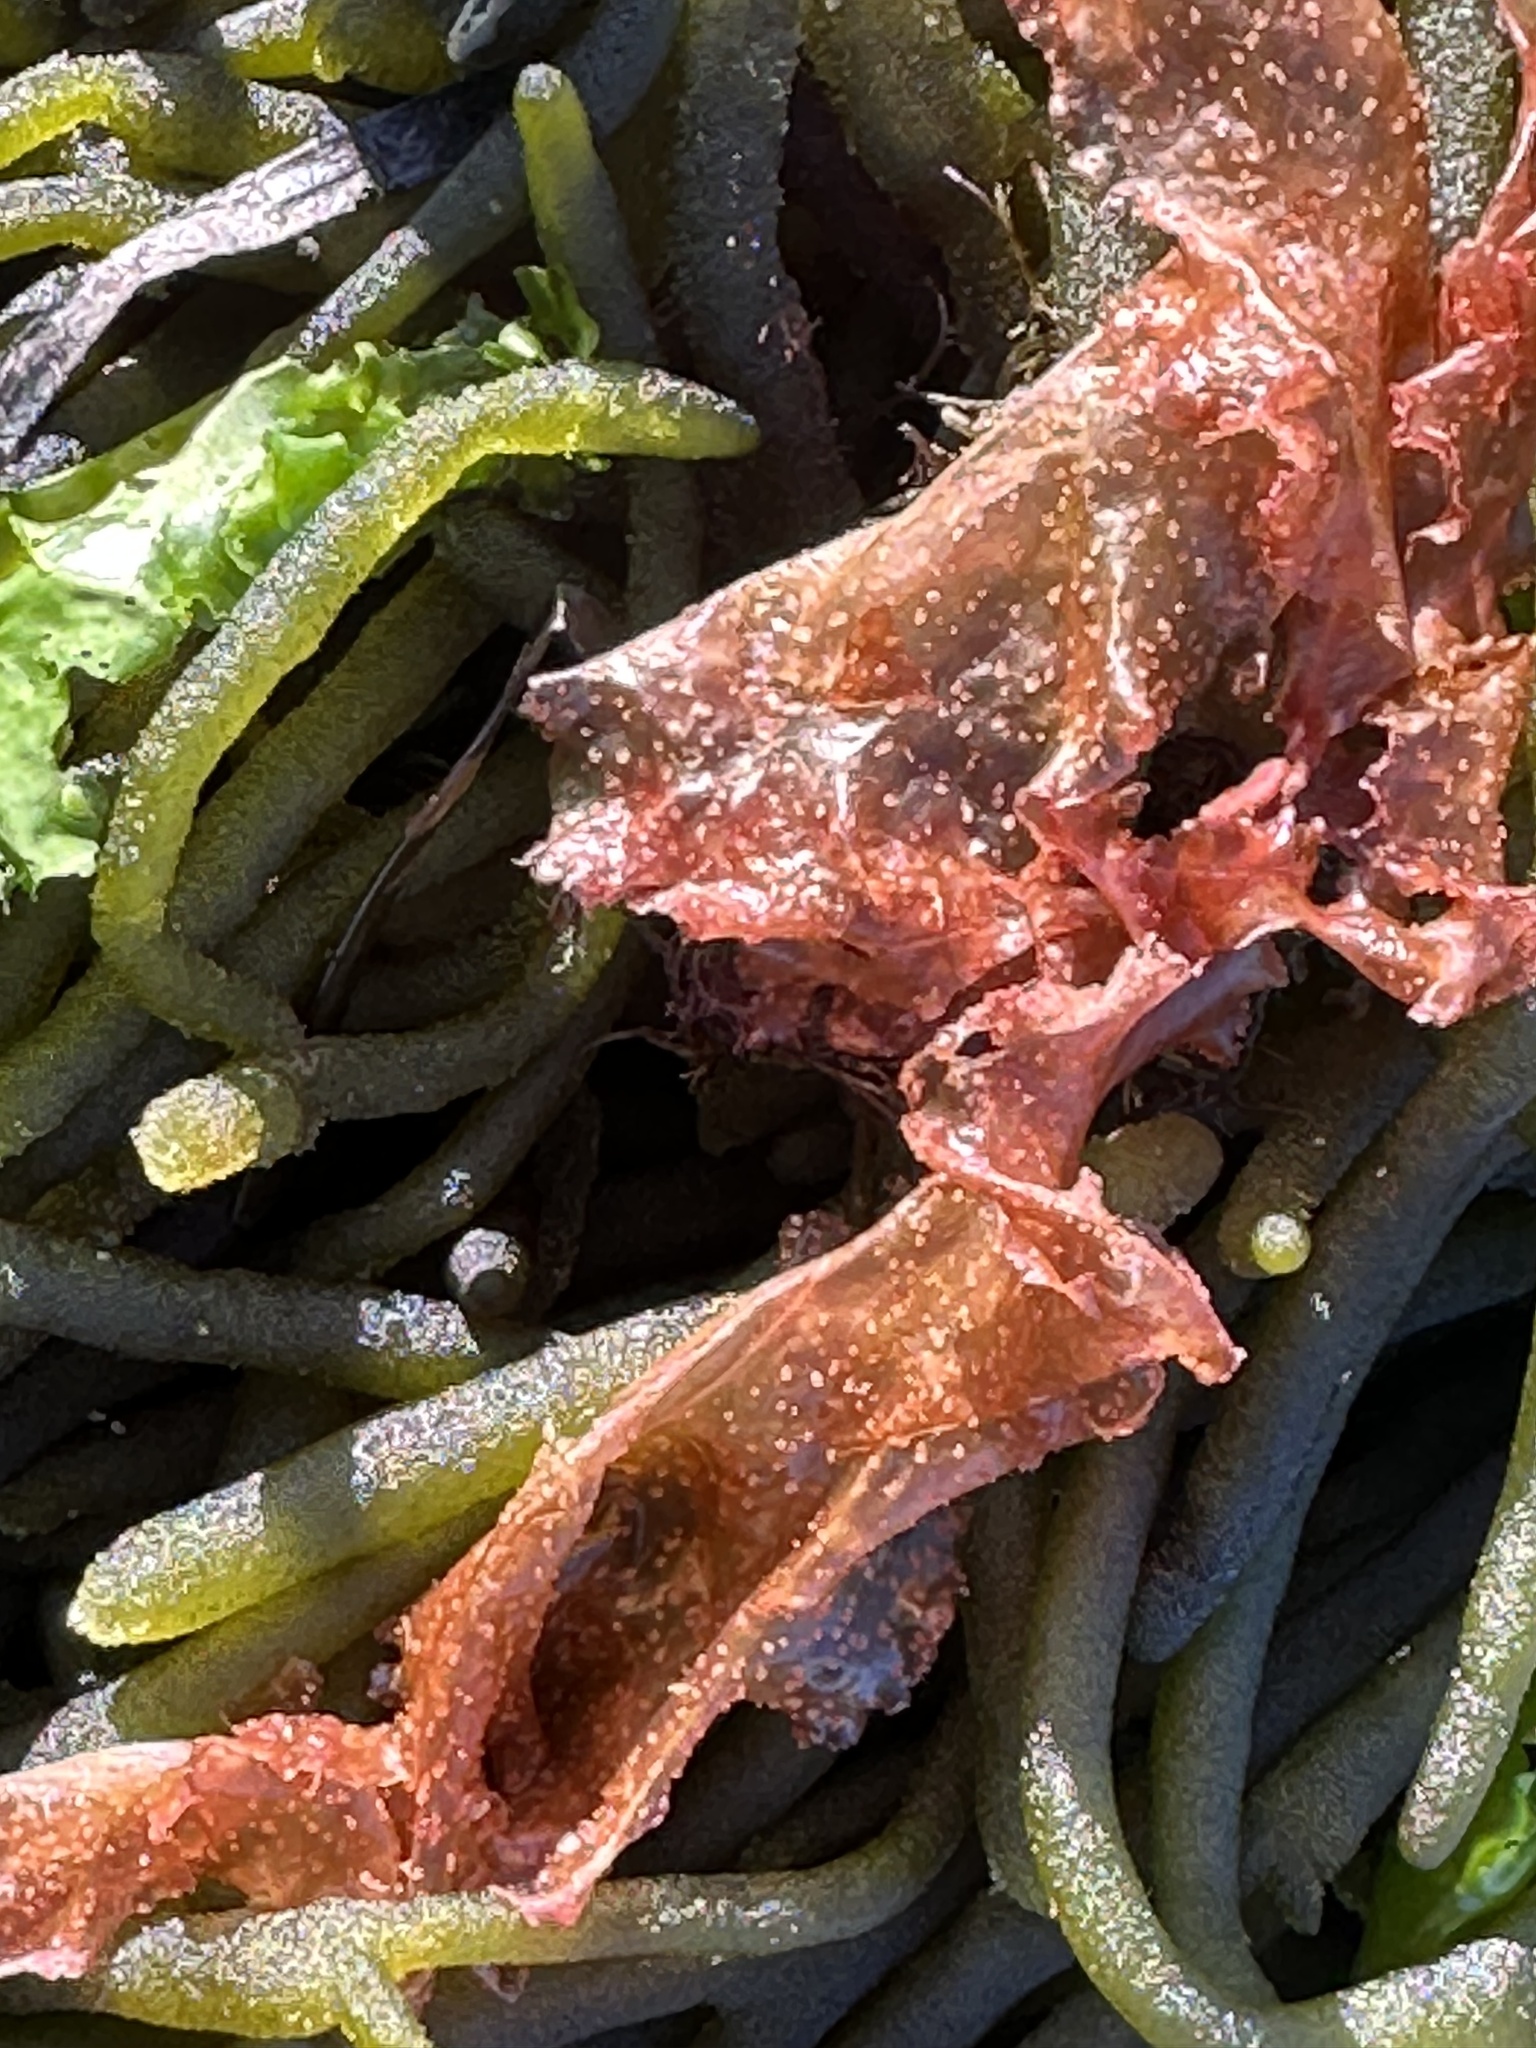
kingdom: Plantae
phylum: Rhodophyta
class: Florideophyceae
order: Ceramiales
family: Delesseriaceae
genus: Grinnellia
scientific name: Grinnellia americana
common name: Grinnell's pink leaf
